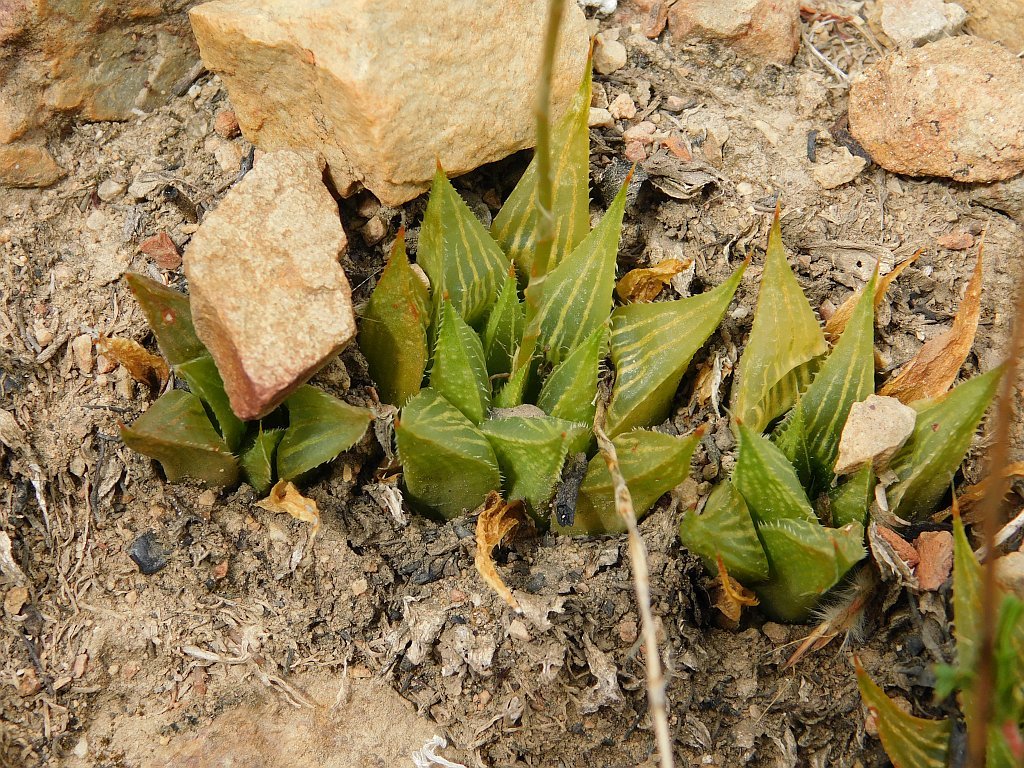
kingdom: Plantae
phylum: Tracheophyta
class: Liliopsida
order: Asparagales
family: Asphodelaceae
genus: Haworthia
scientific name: Haworthia mirabilis
